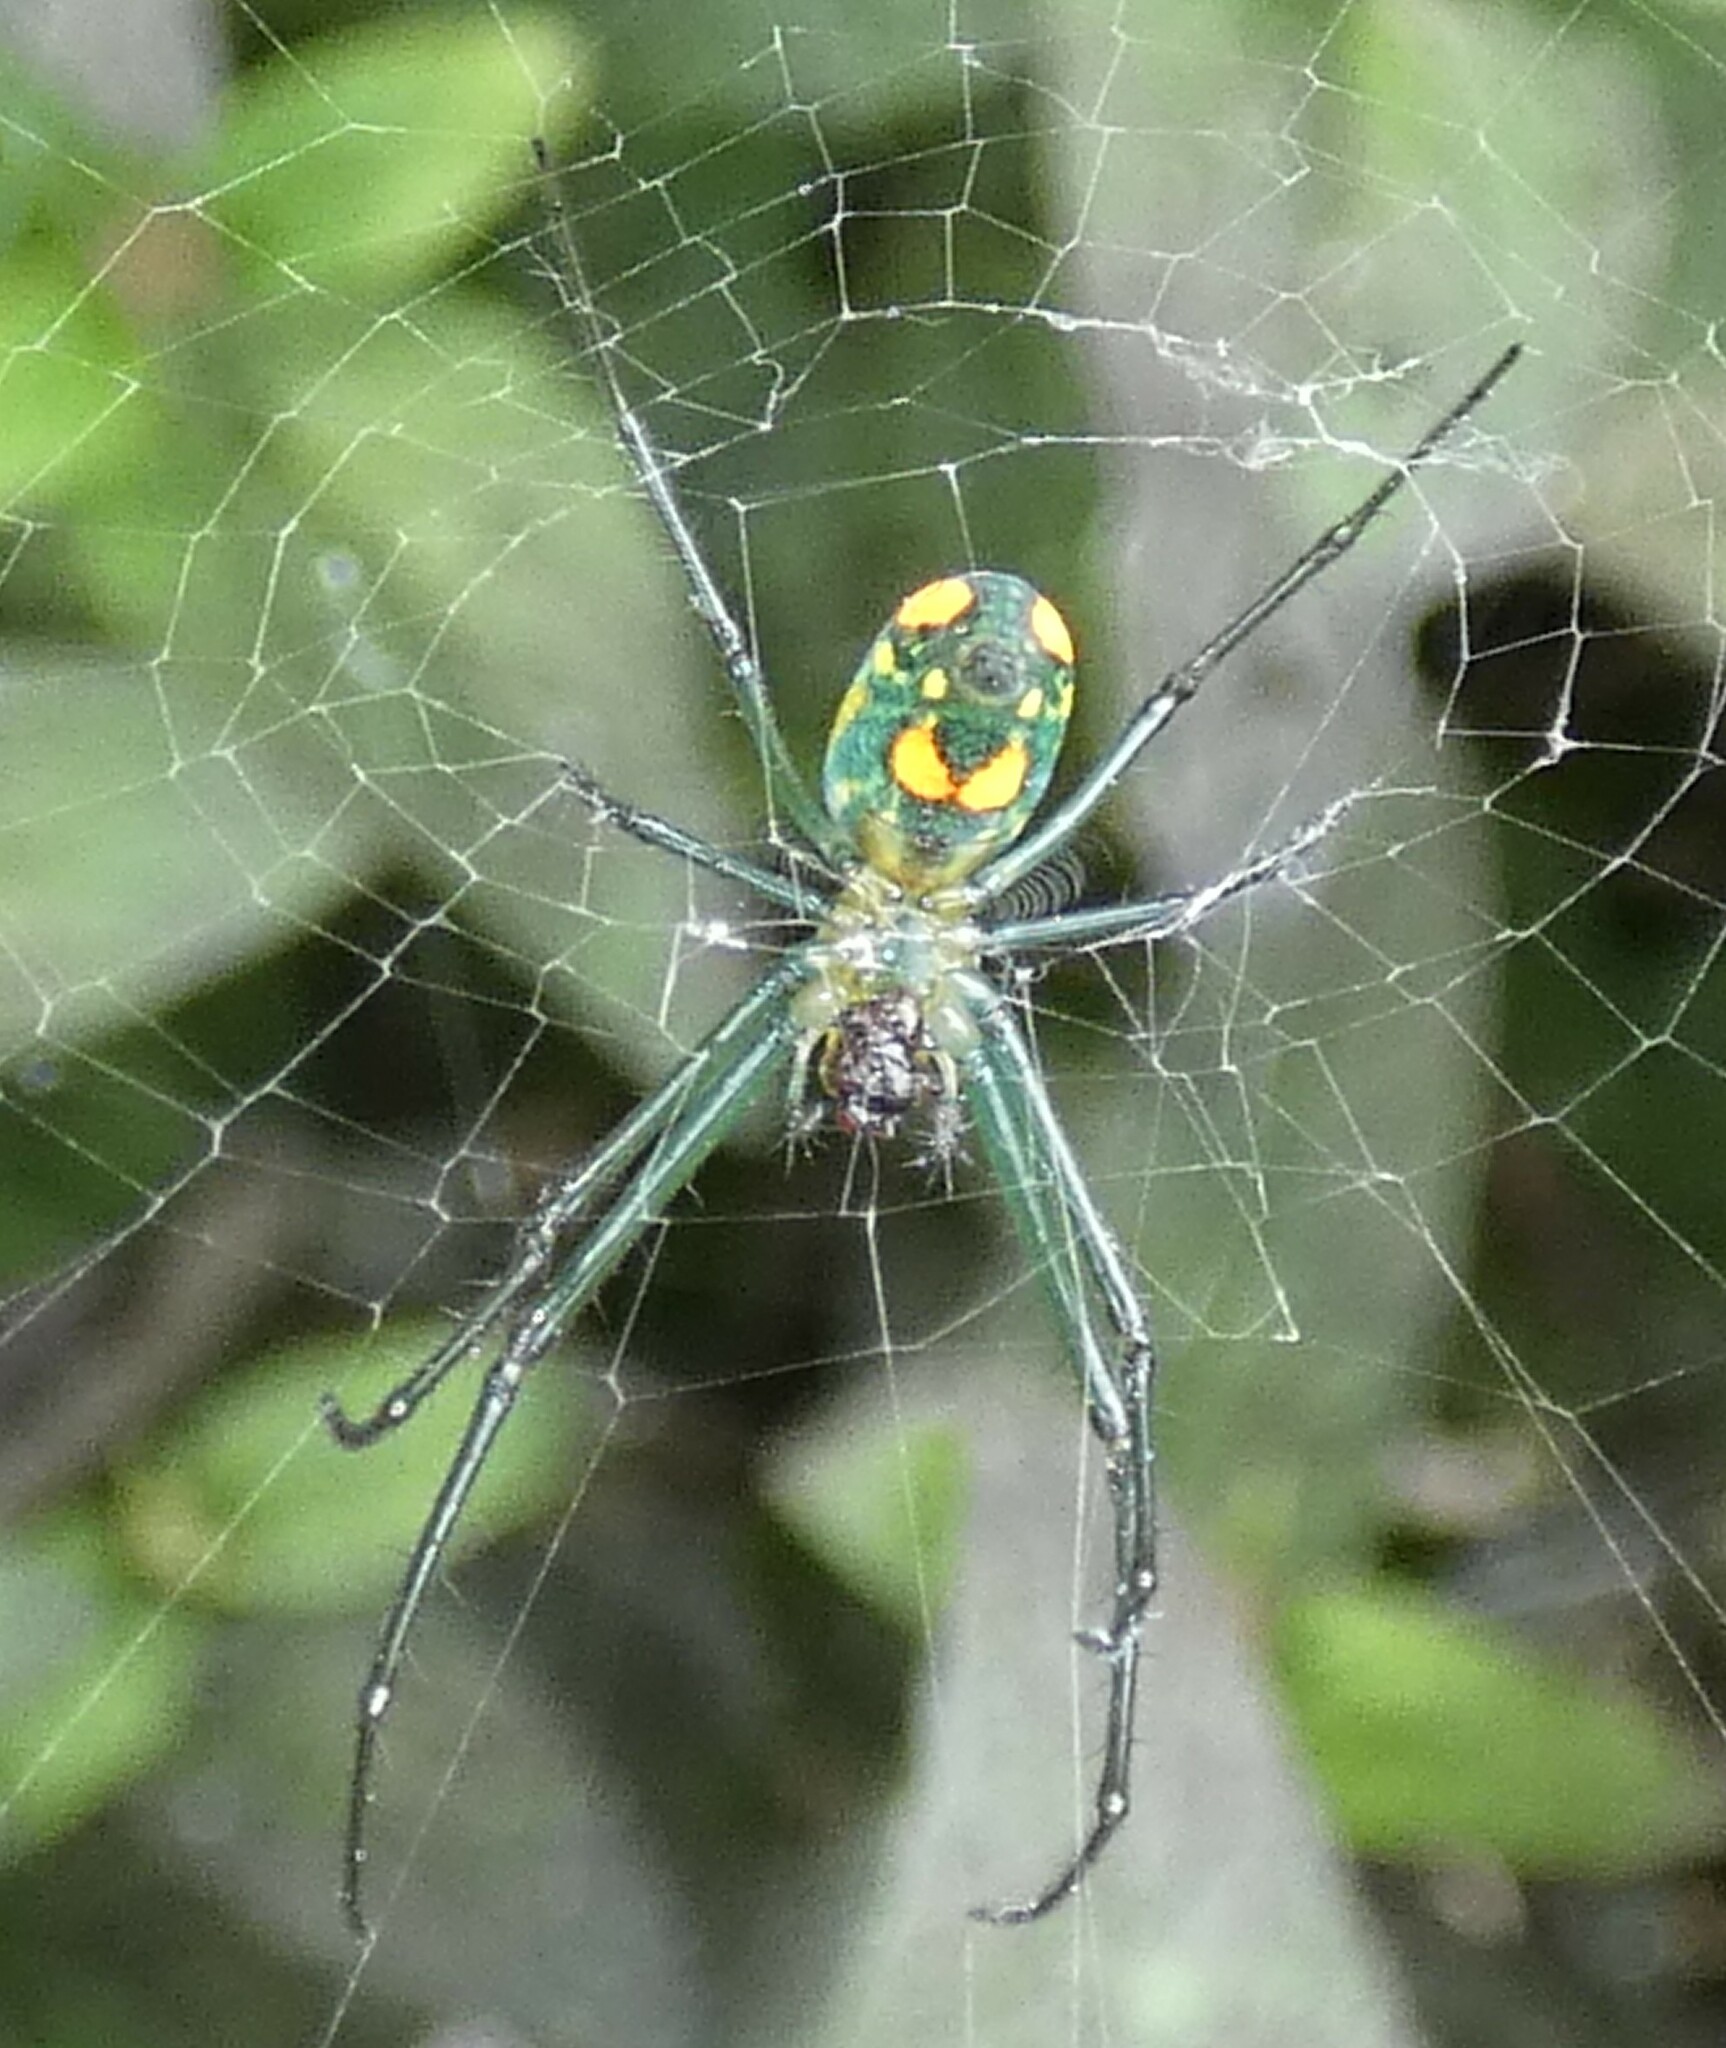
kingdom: Animalia
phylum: Arthropoda
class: Arachnida
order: Araneae
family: Tetragnathidae
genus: Leucauge
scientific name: Leucauge argyrobapta
